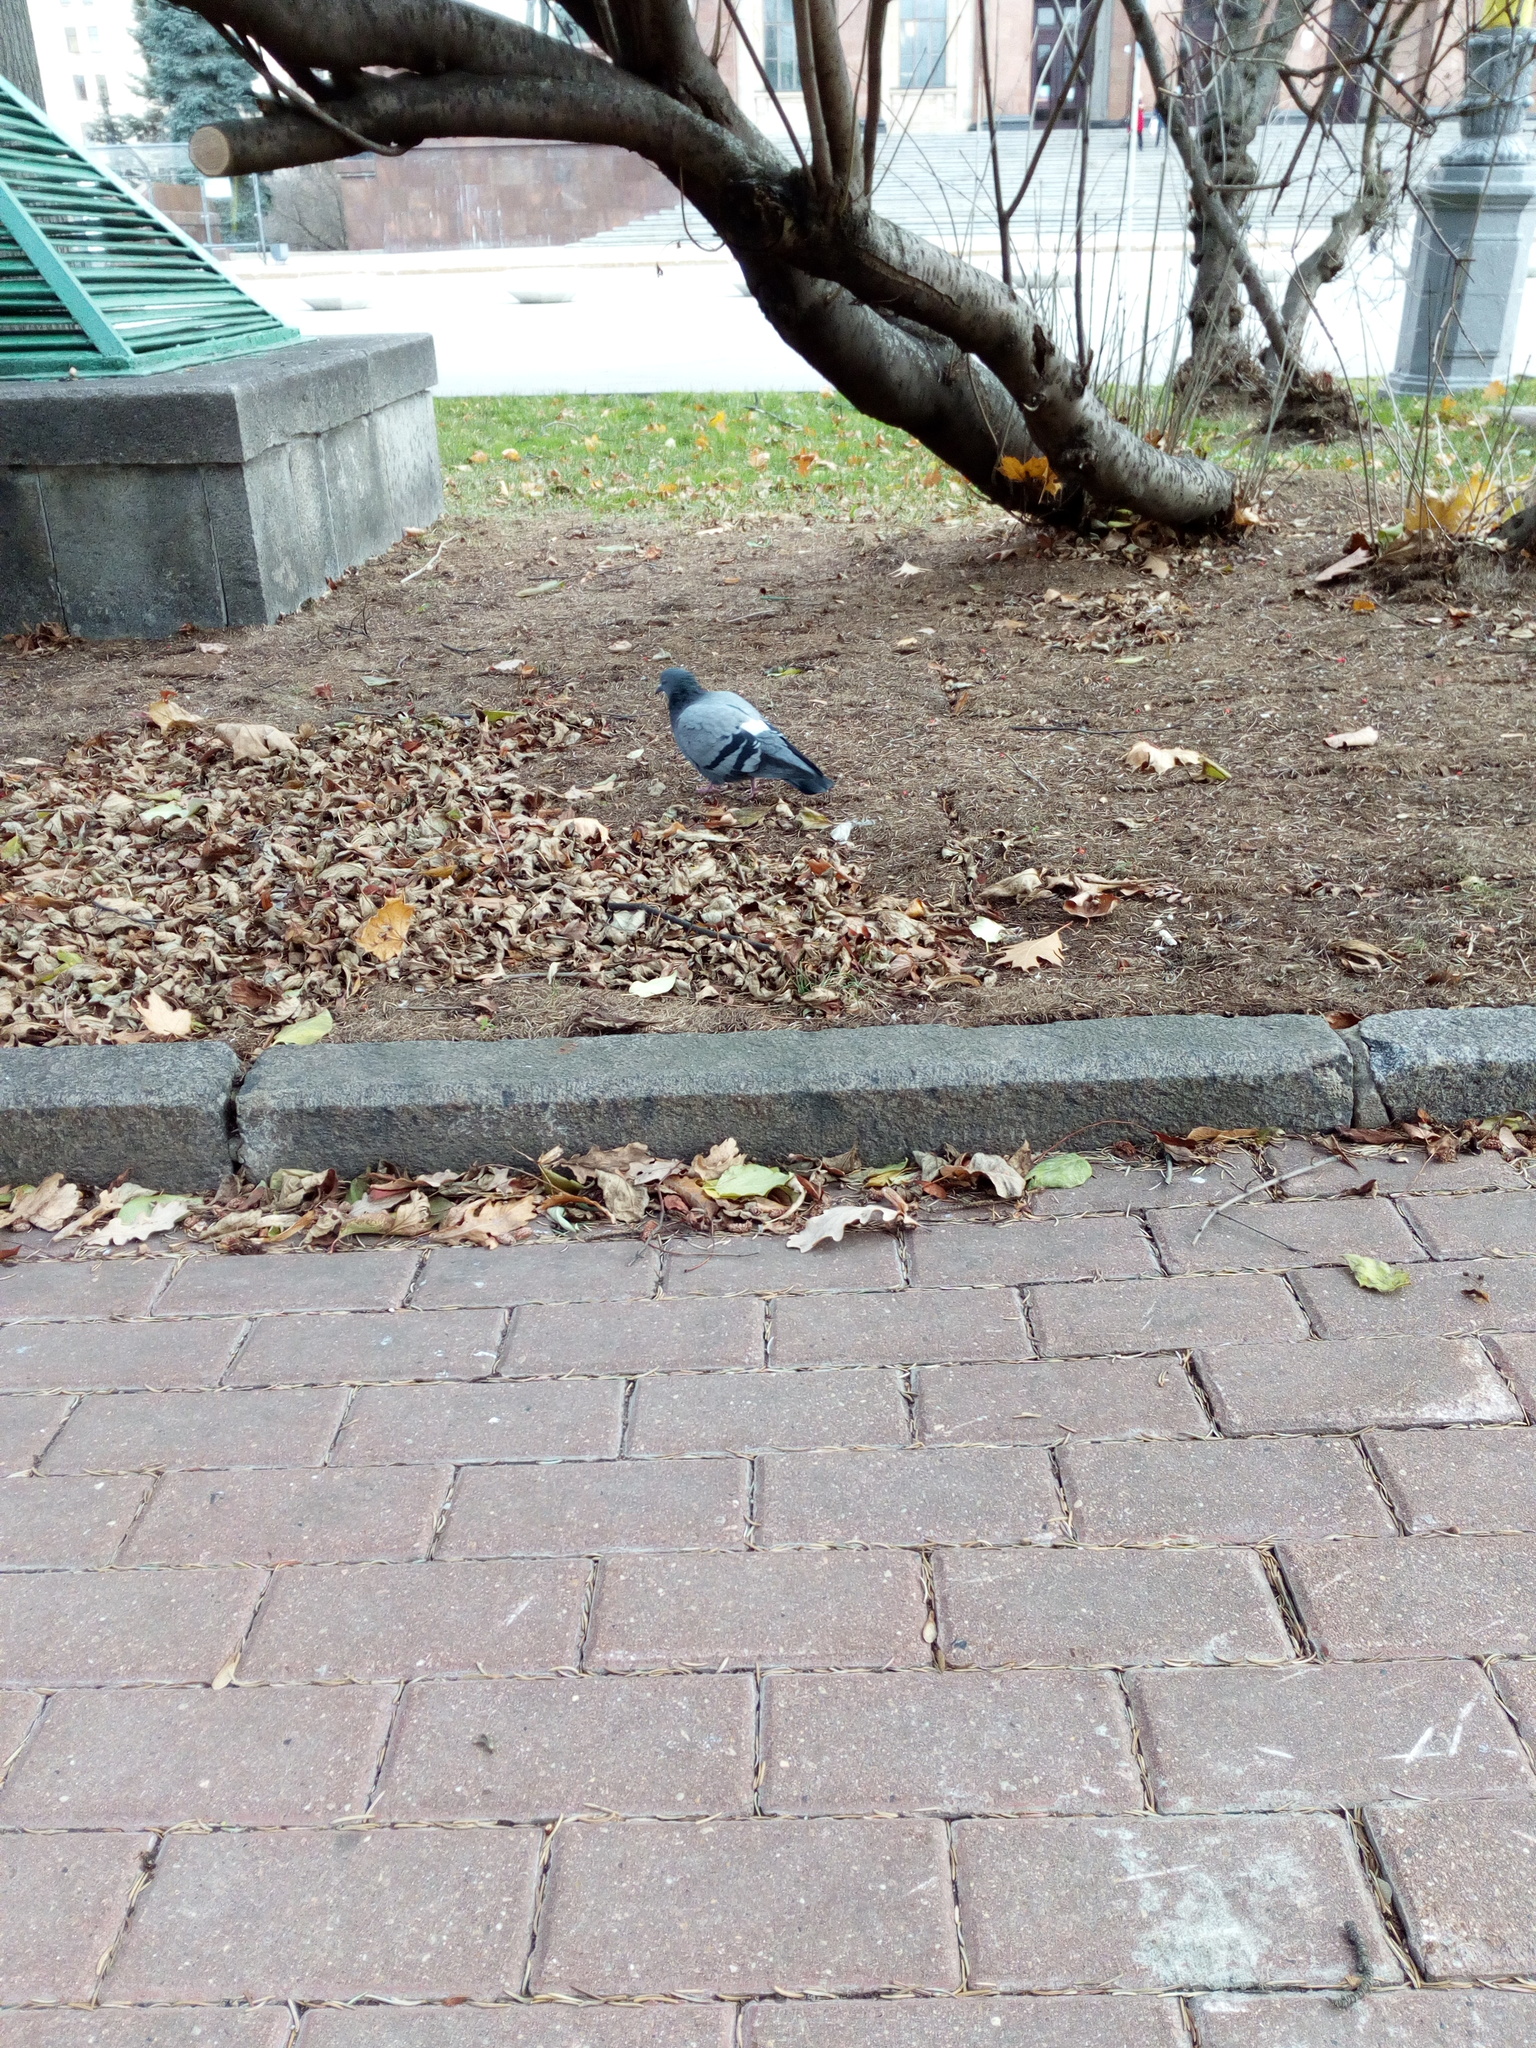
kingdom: Animalia
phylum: Chordata
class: Aves
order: Columbiformes
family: Columbidae
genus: Columba
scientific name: Columba livia
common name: Rock pigeon
